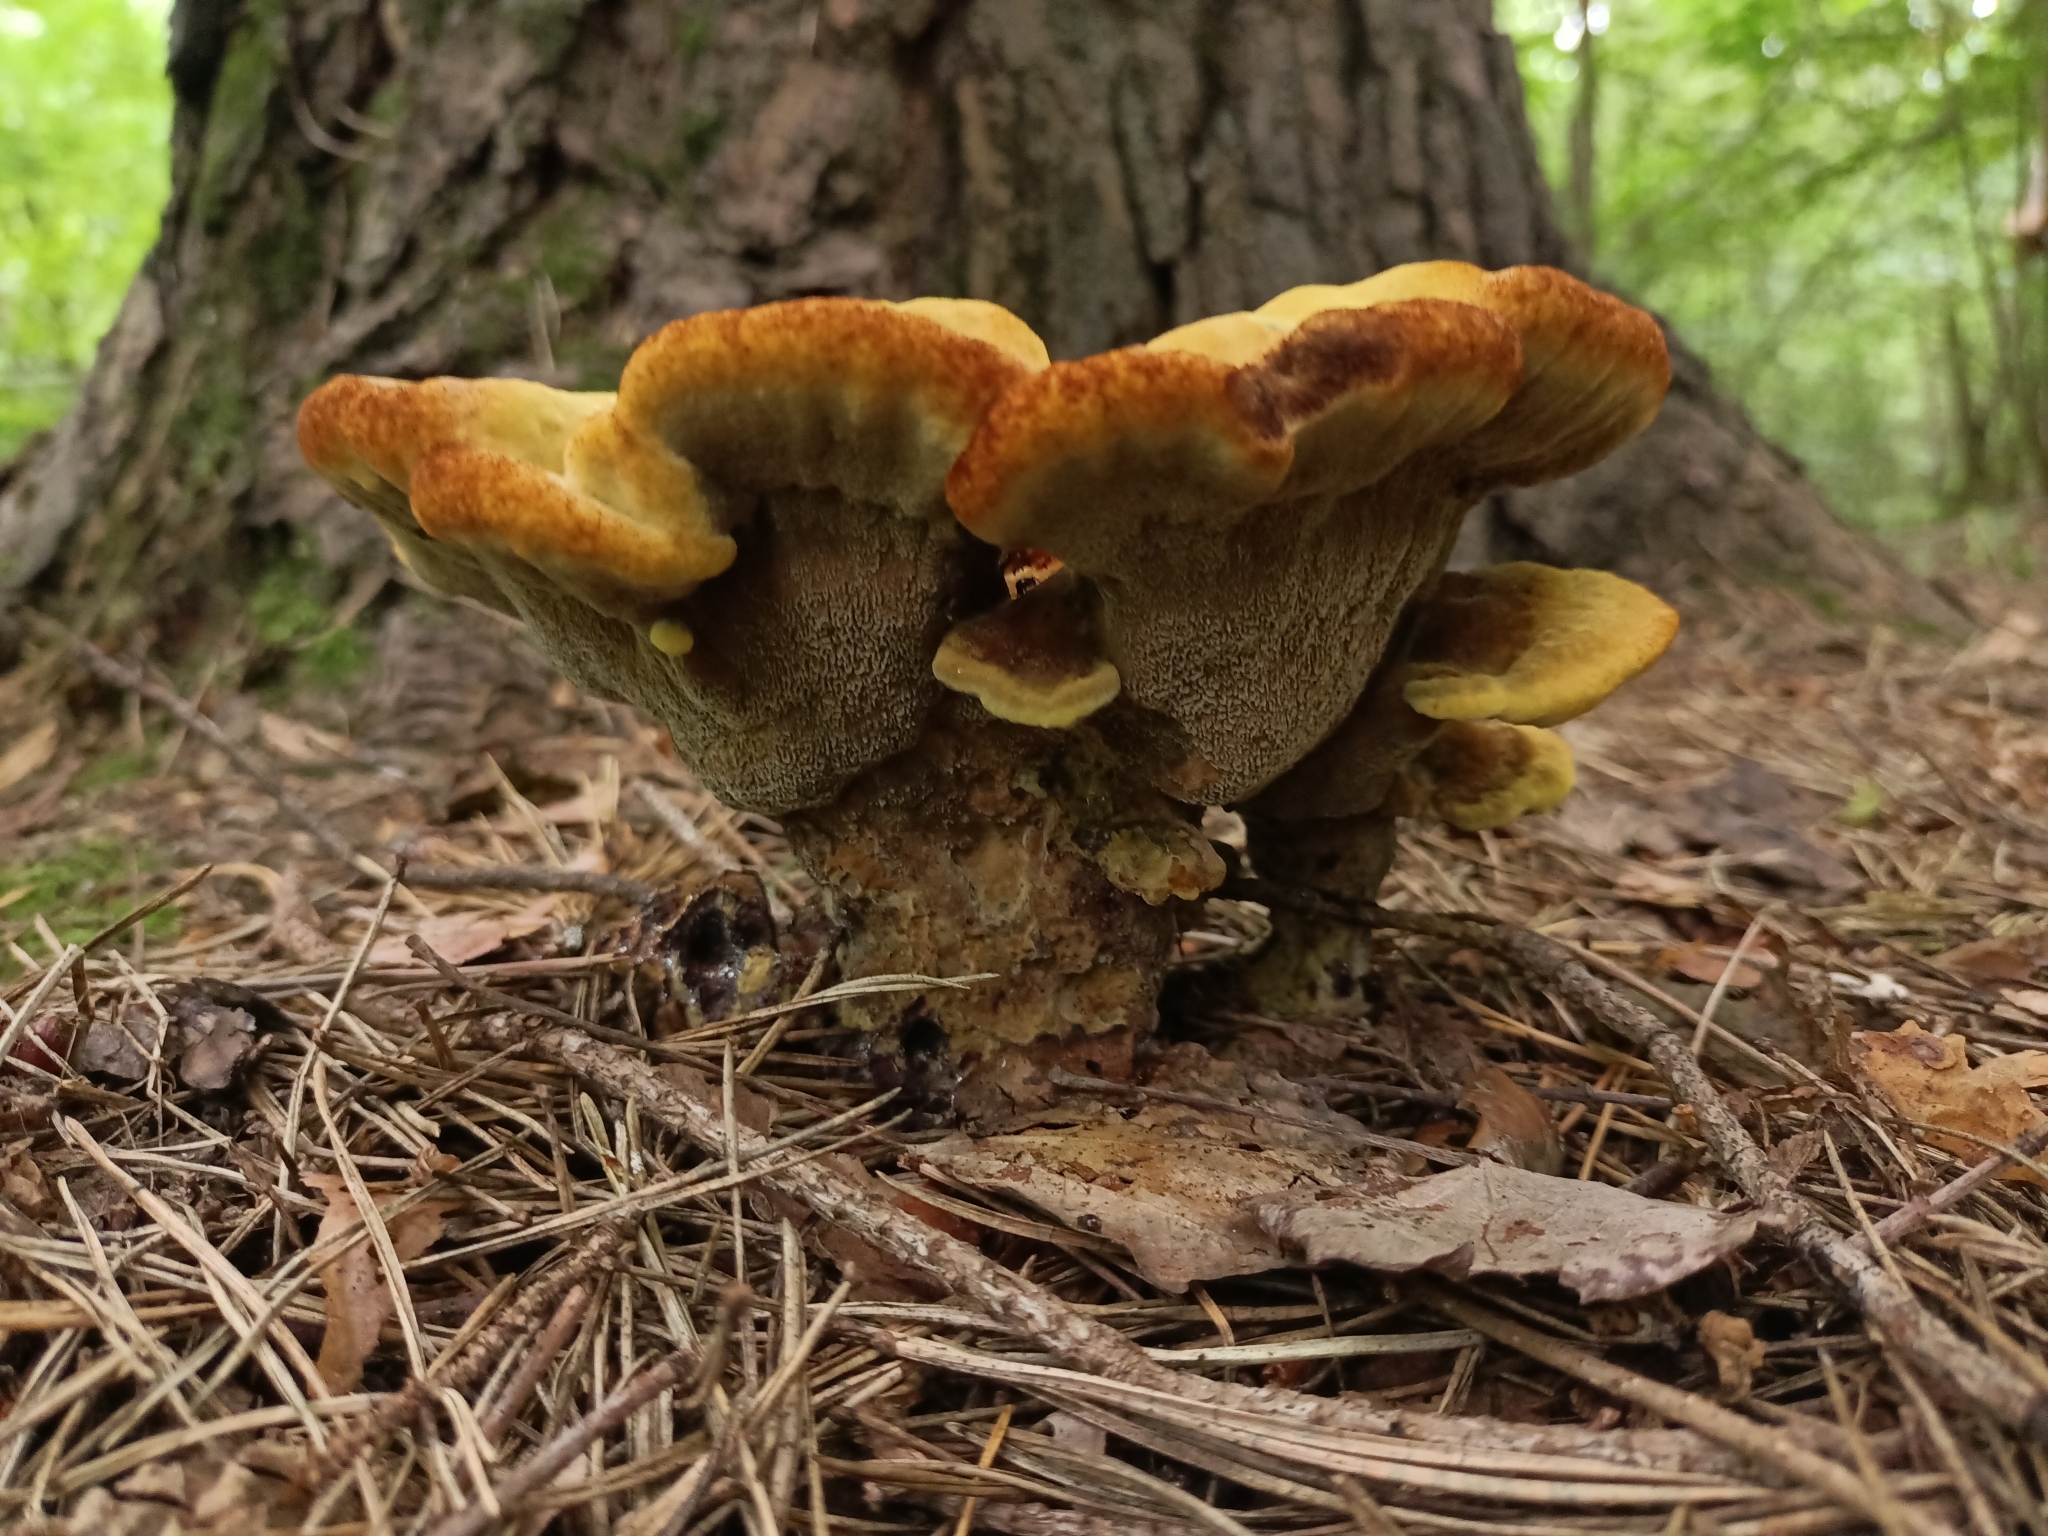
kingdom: Fungi
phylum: Basidiomycota
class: Agaricomycetes
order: Polyporales
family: Laetiporaceae
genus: Phaeolus
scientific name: Phaeolus schweinitzii
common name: Dyer's mazegill
